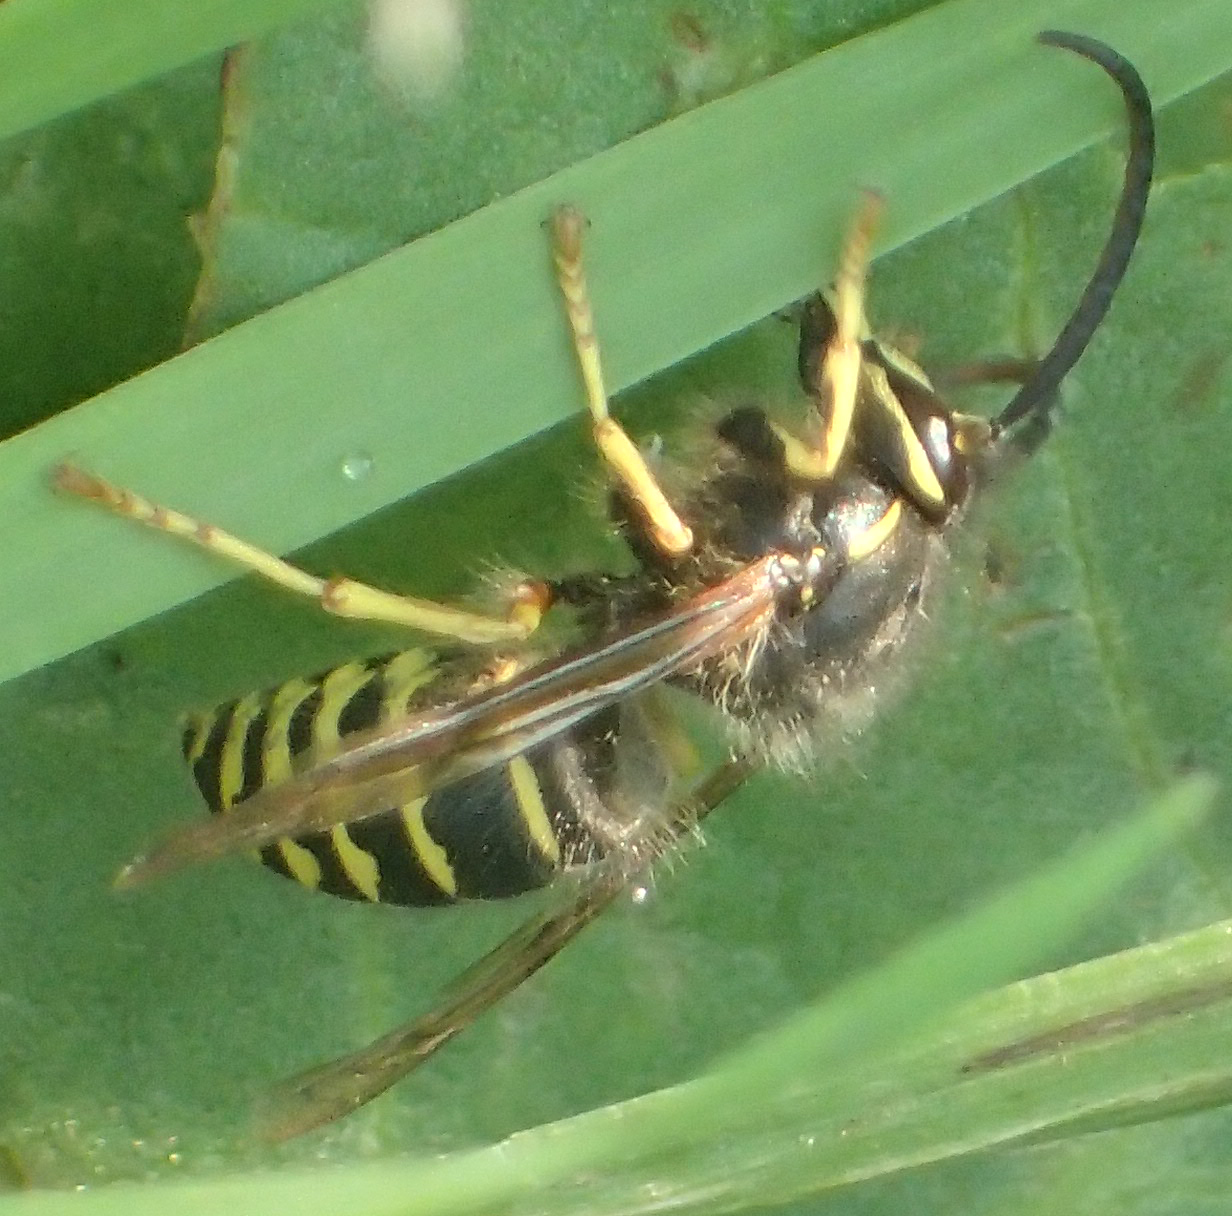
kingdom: Animalia
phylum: Arthropoda
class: Insecta
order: Hymenoptera
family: Vespidae
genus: Dolichovespula
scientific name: Dolichovespula arenaria
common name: Aerial yellowjacket
